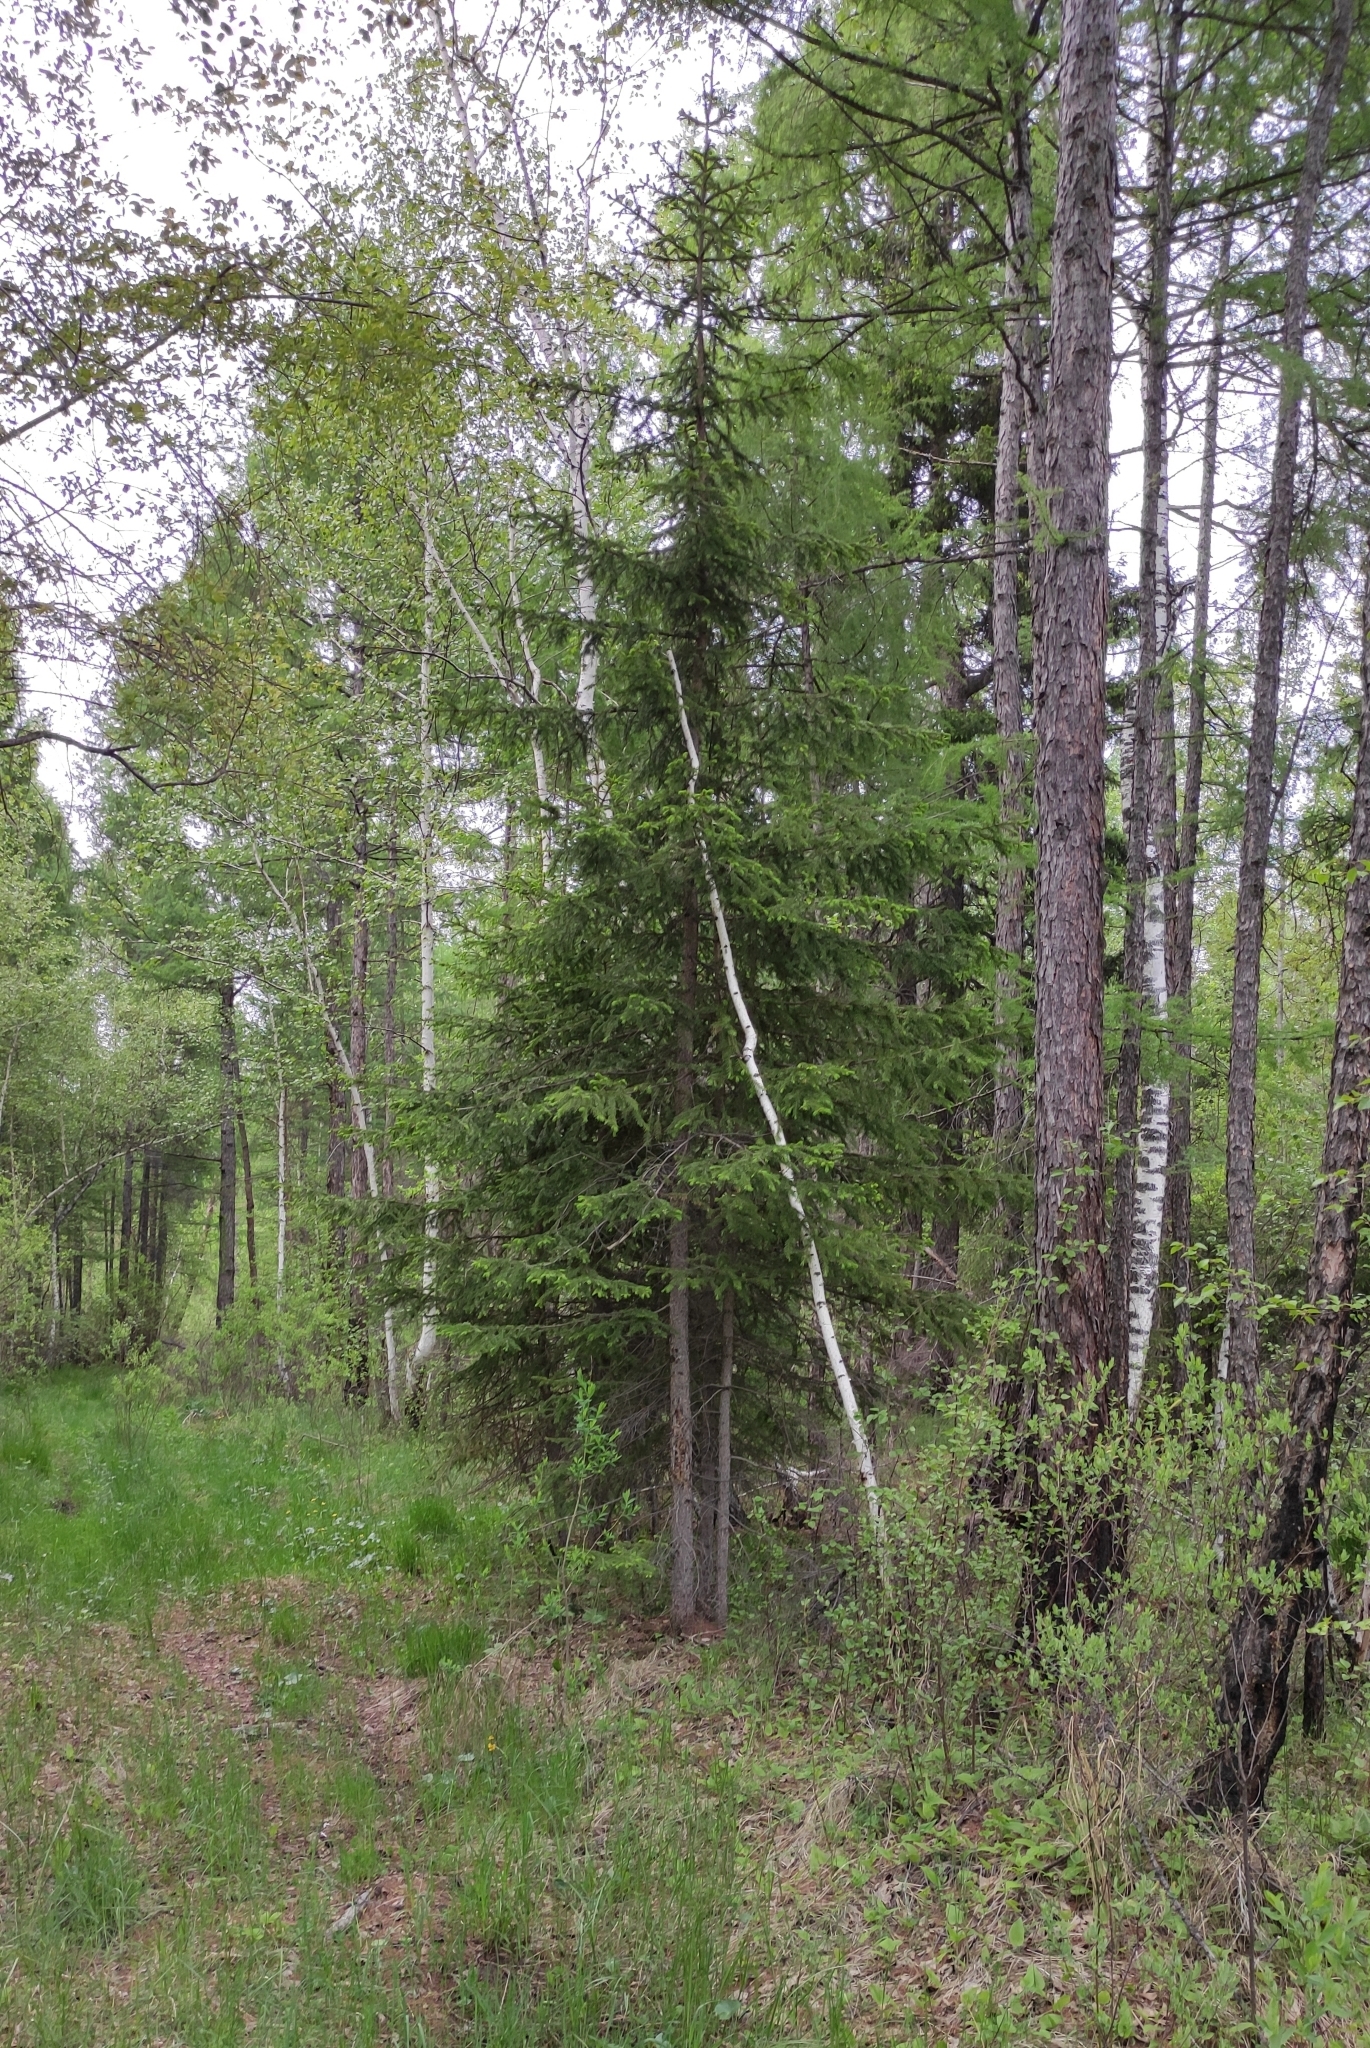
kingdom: Plantae
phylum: Tracheophyta
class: Pinopsida
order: Pinales
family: Pinaceae
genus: Picea
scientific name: Picea obovata
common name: Siberian spruce
